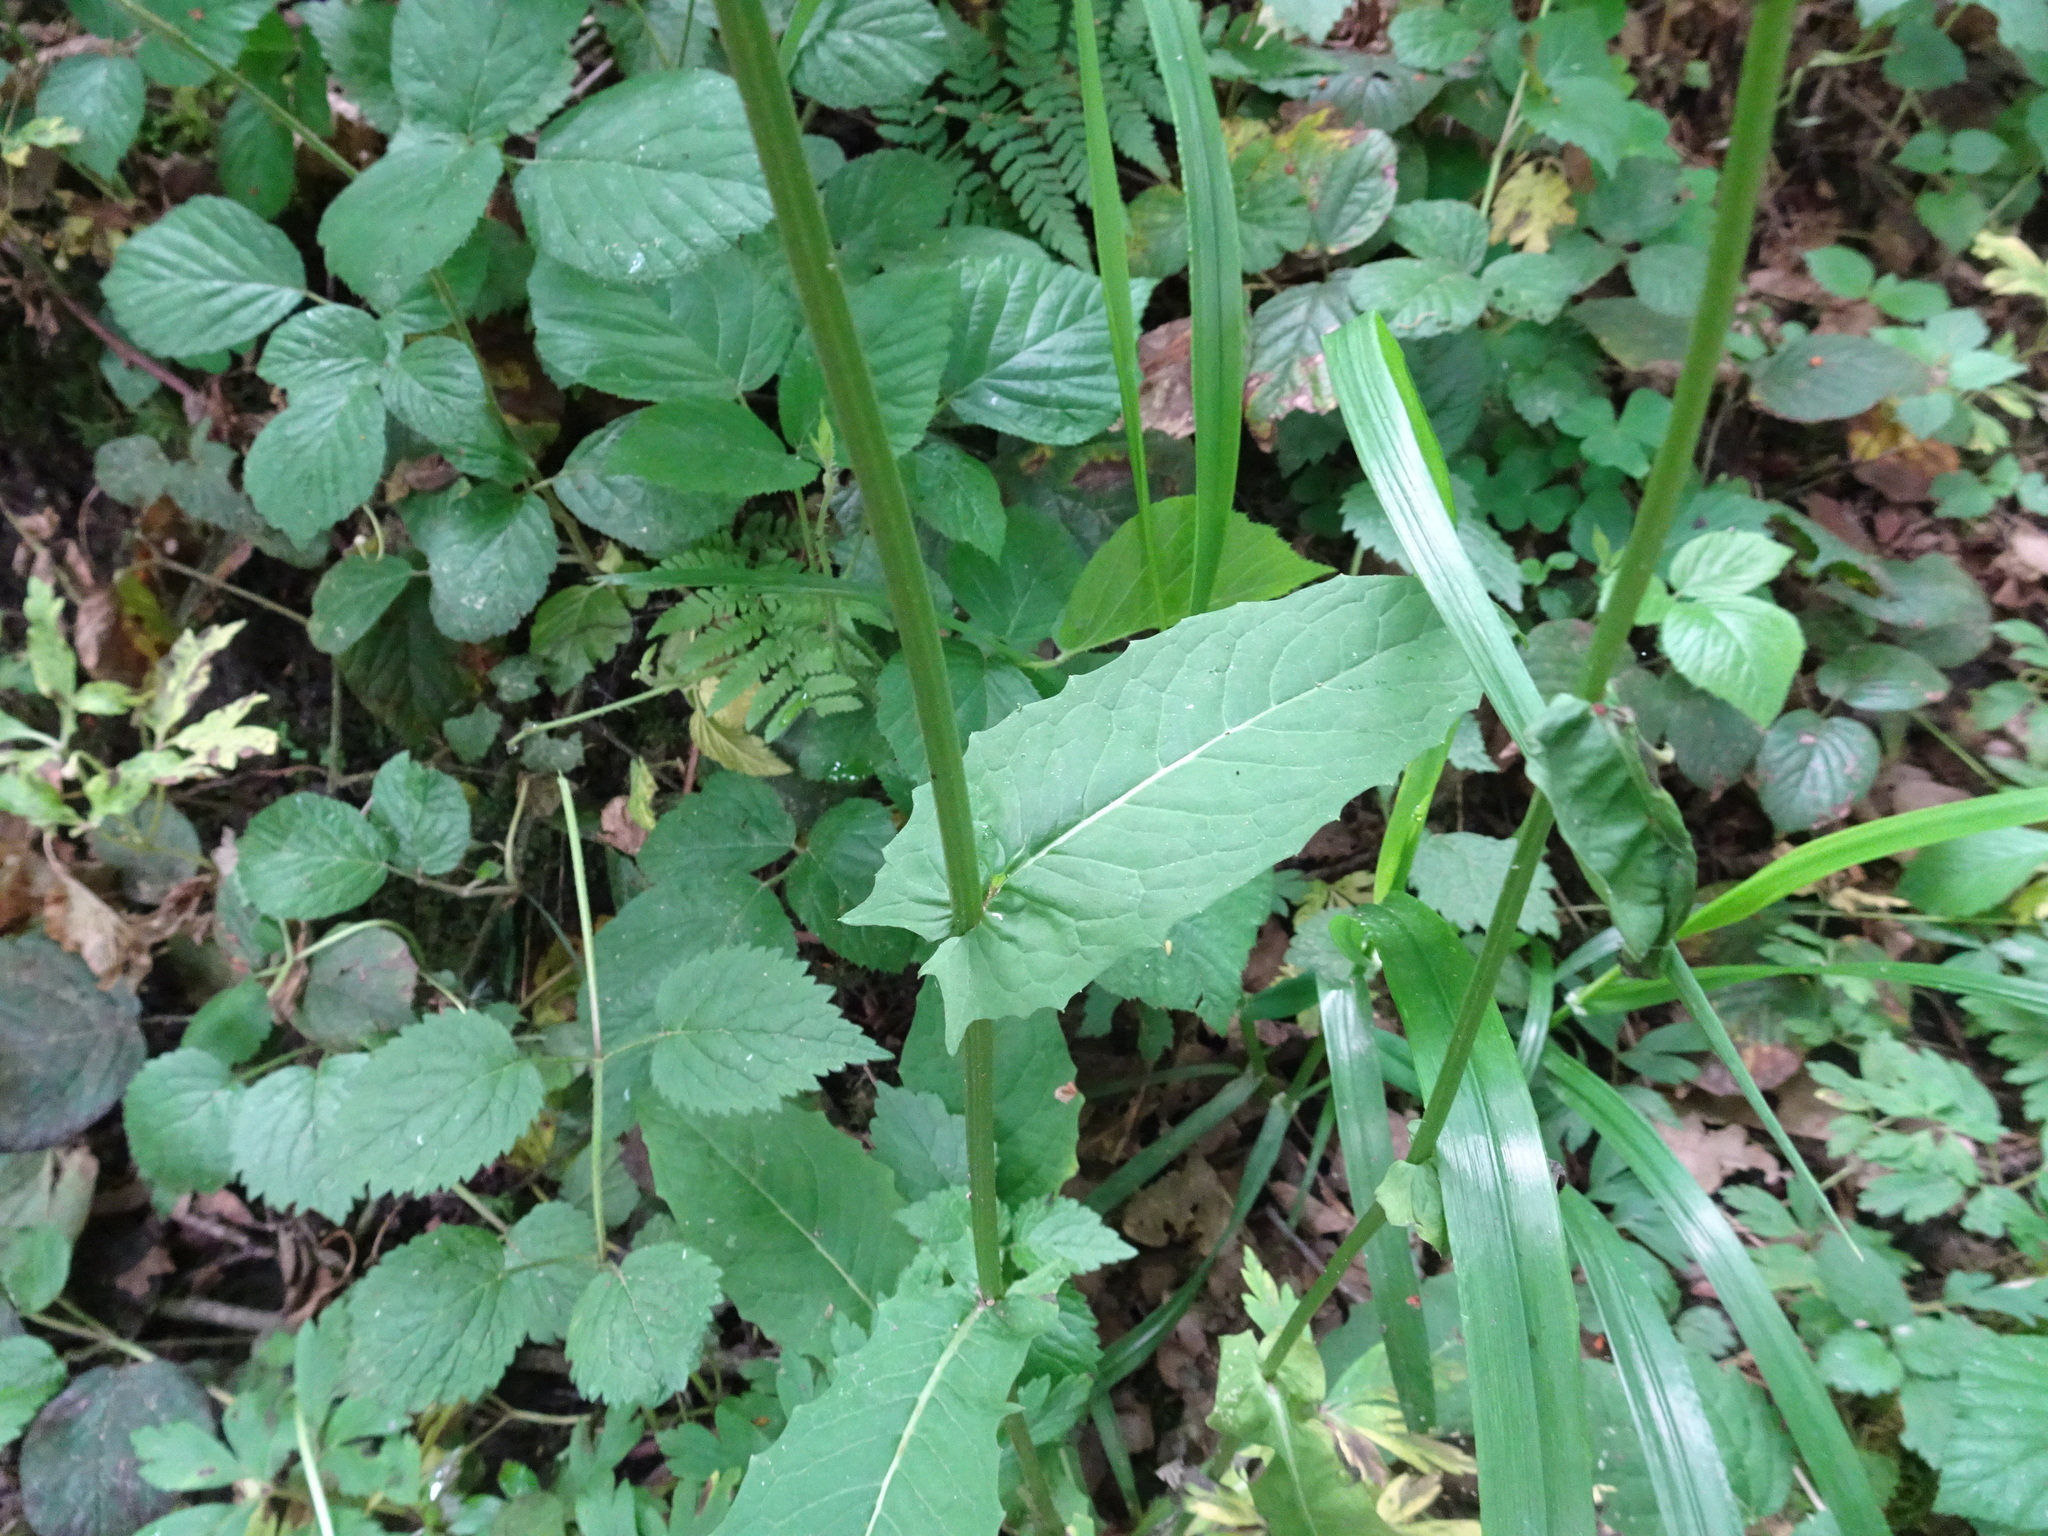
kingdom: Plantae
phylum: Tracheophyta
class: Magnoliopsida
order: Asterales
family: Asteraceae
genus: Crepis
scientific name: Crepis paludosa
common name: Marsh hawk's-beard
